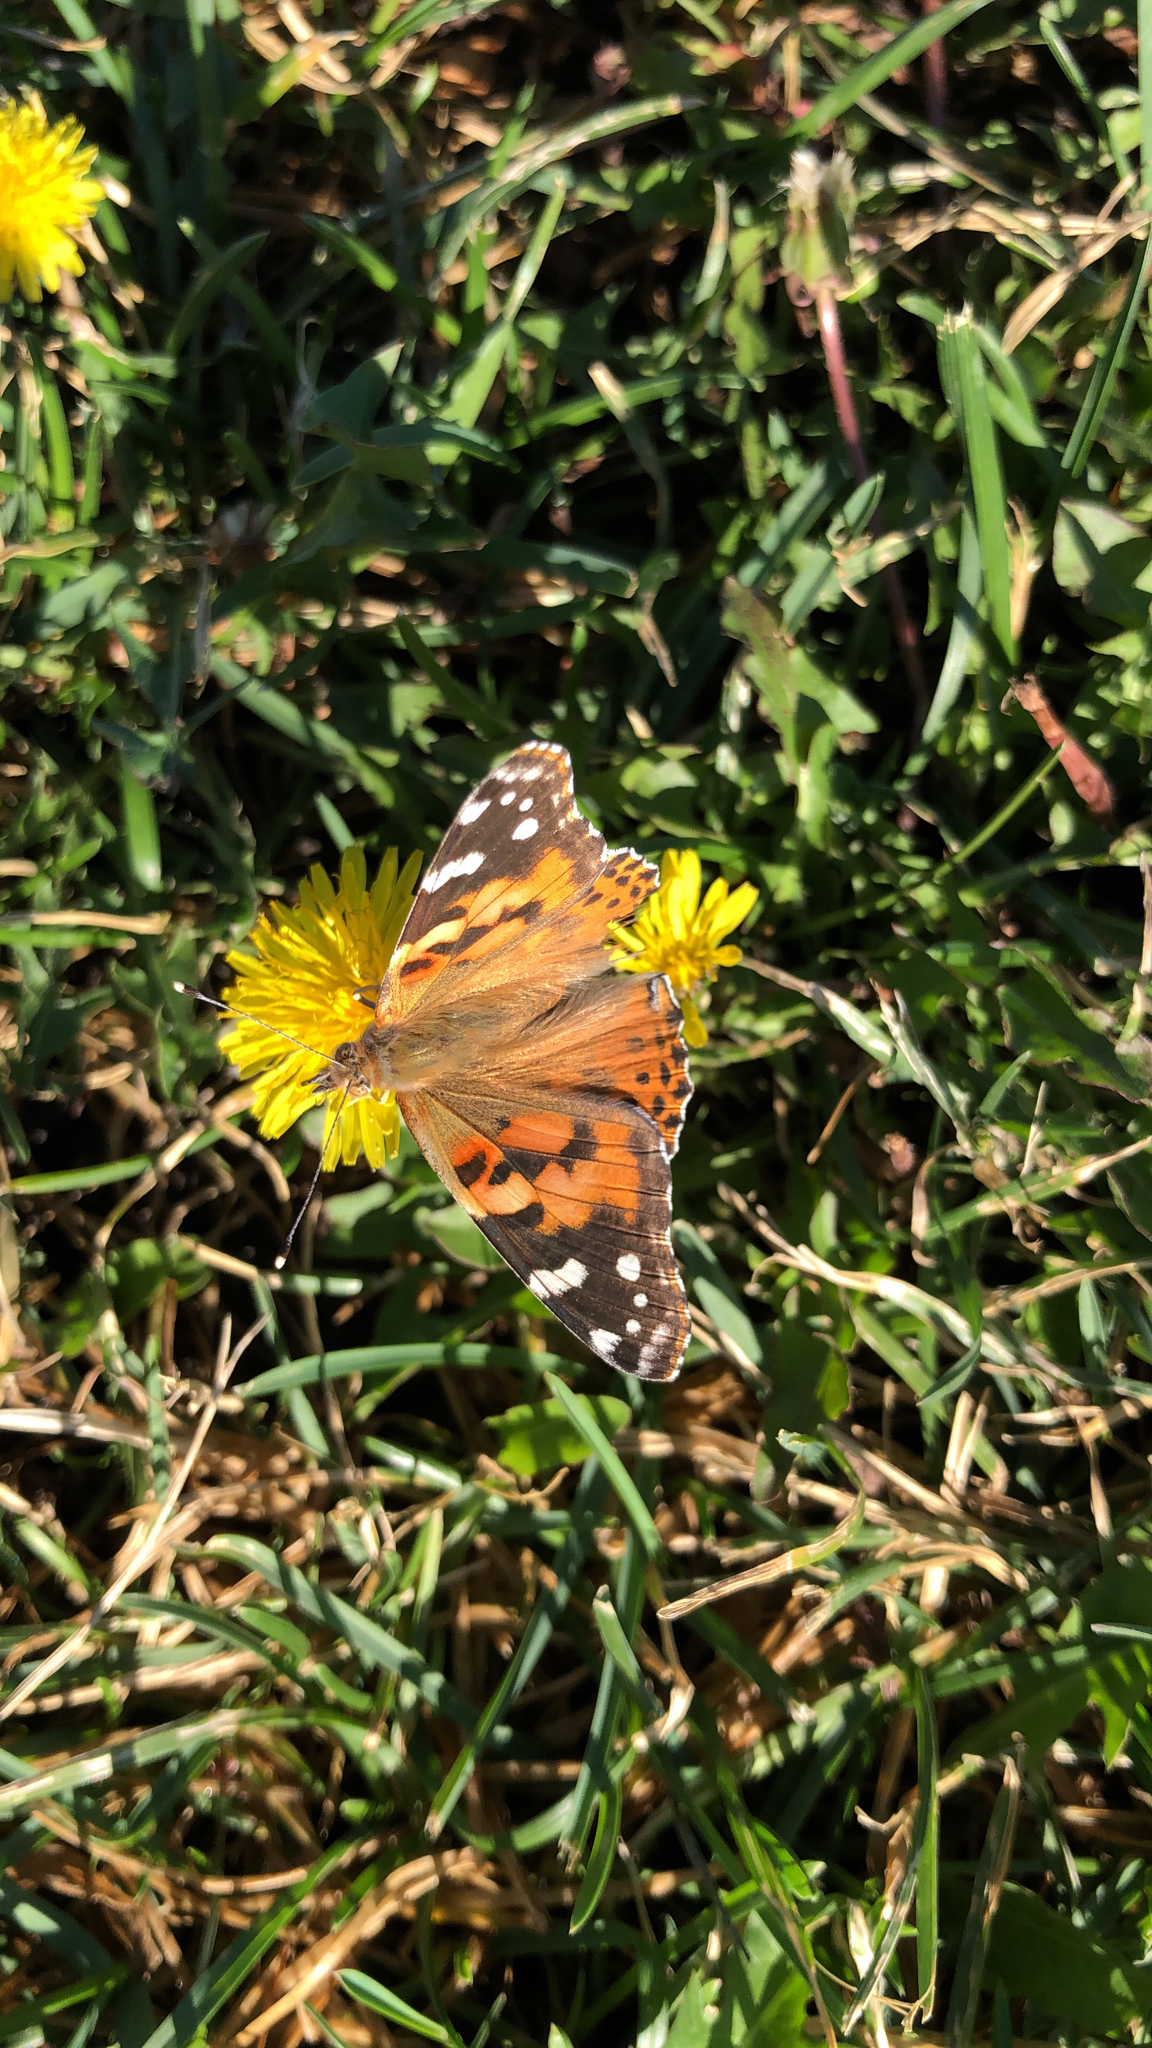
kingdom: Animalia
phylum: Arthropoda
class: Insecta
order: Lepidoptera
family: Nymphalidae
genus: Vanessa
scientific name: Vanessa cardui
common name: Painted lady
